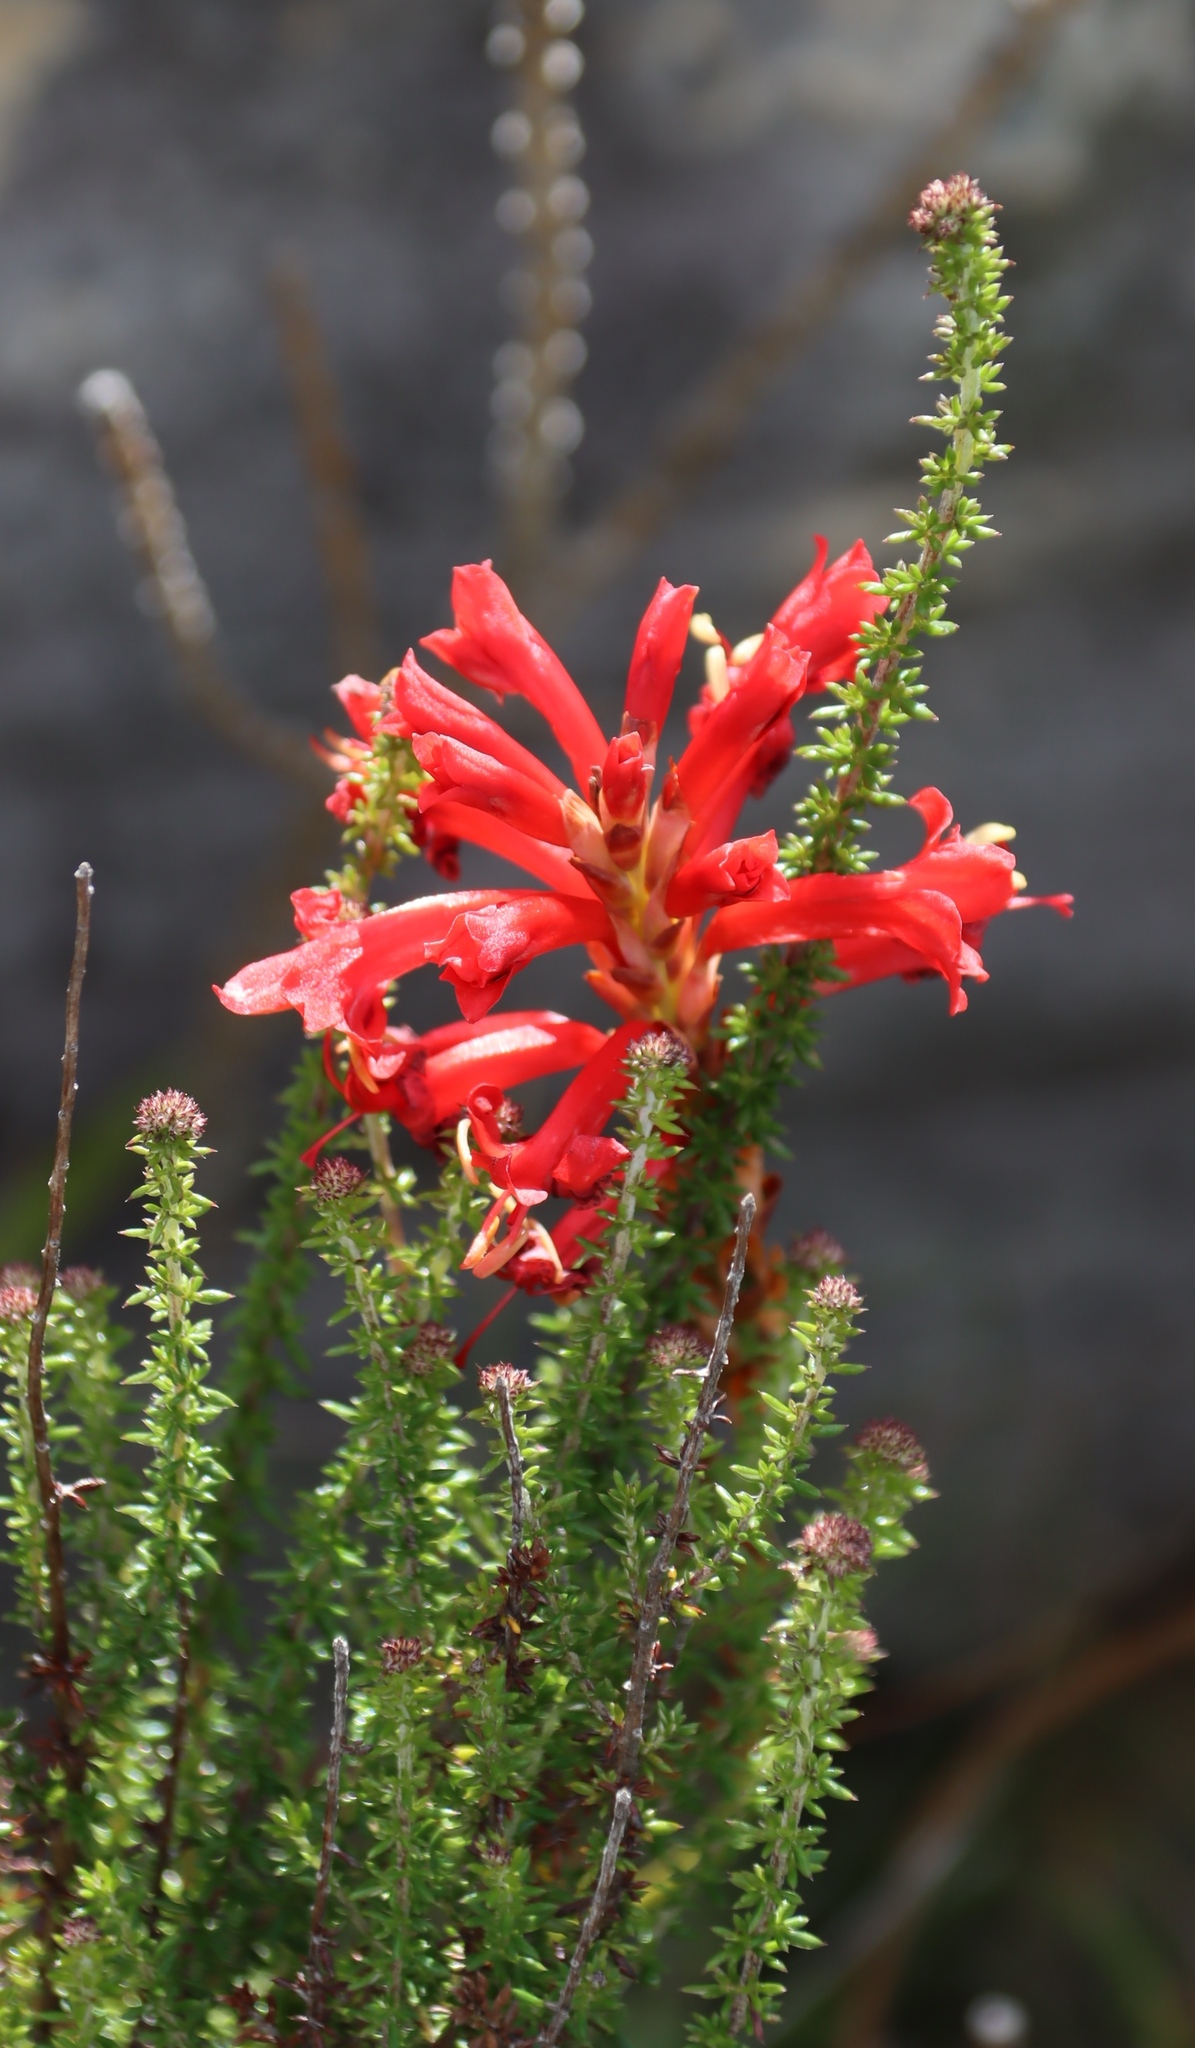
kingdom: Plantae
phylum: Tracheophyta
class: Liliopsida
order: Asparagales
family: Iridaceae
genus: Tritoniopsis
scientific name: Tritoniopsis triticea
